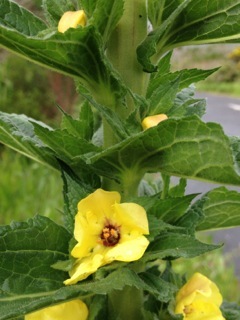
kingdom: Plantae
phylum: Tracheophyta
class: Magnoliopsida
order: Lamiales
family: Scrophulariaceae
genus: Verbascum
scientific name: Verbascum virgatum
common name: Twiggy mullein
